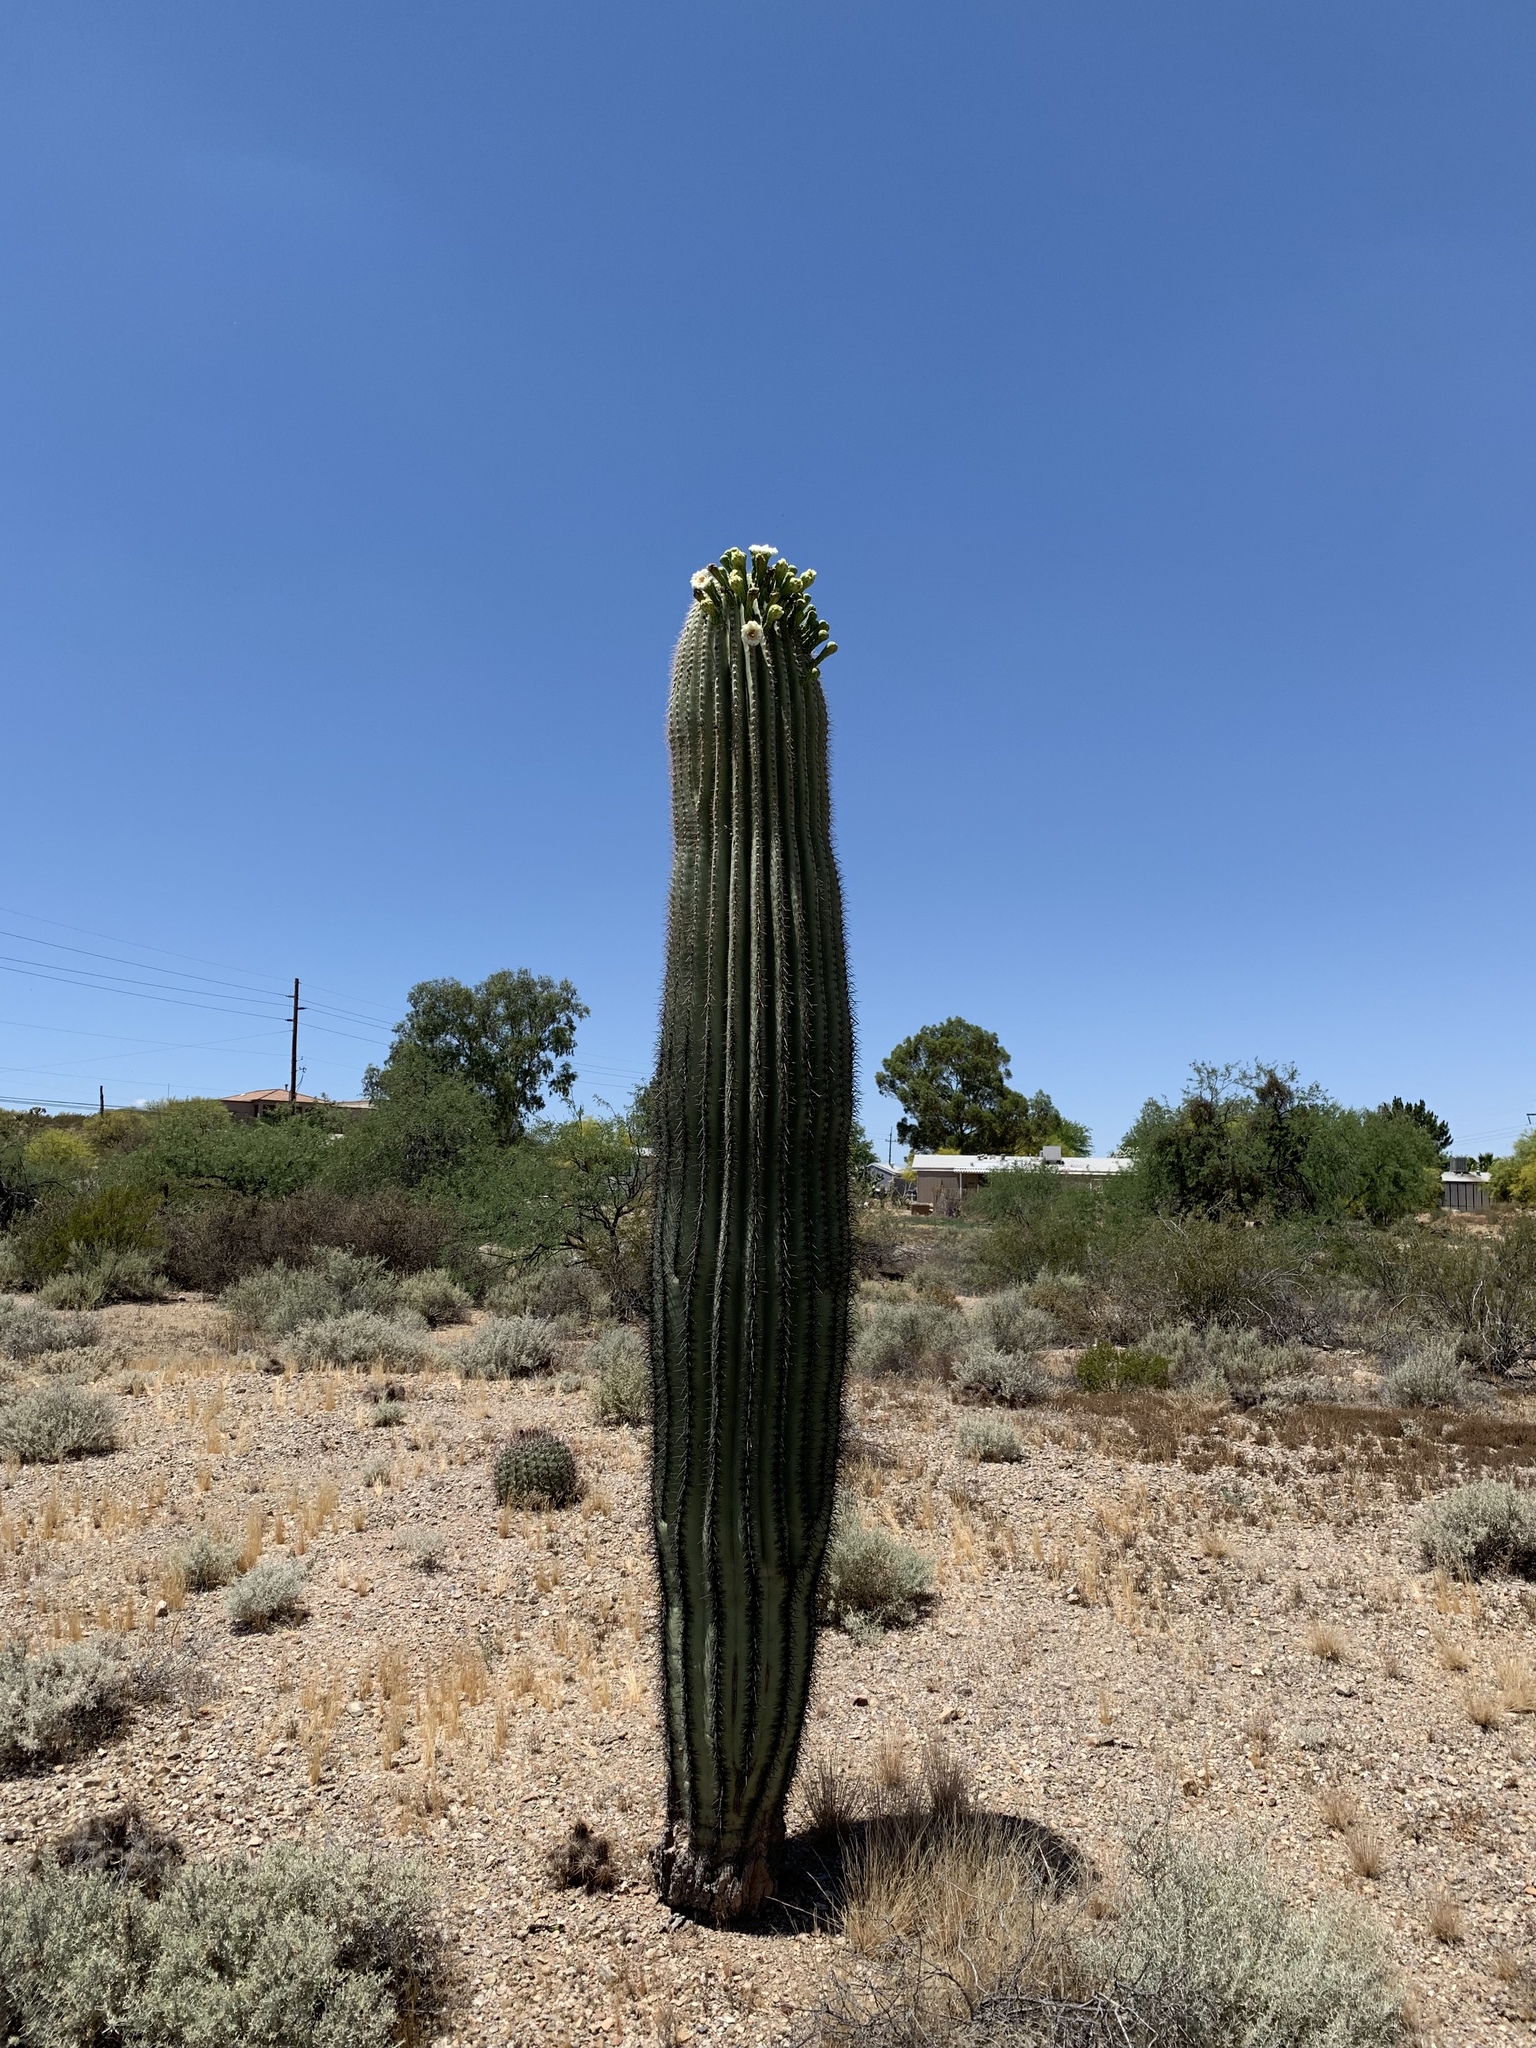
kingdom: Plantae
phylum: Tracheophyta
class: Magnoliopsida
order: Caryophyllales
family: Cactaceae
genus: Carnegiea
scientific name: Carnegiea gigantea
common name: Saguaro
